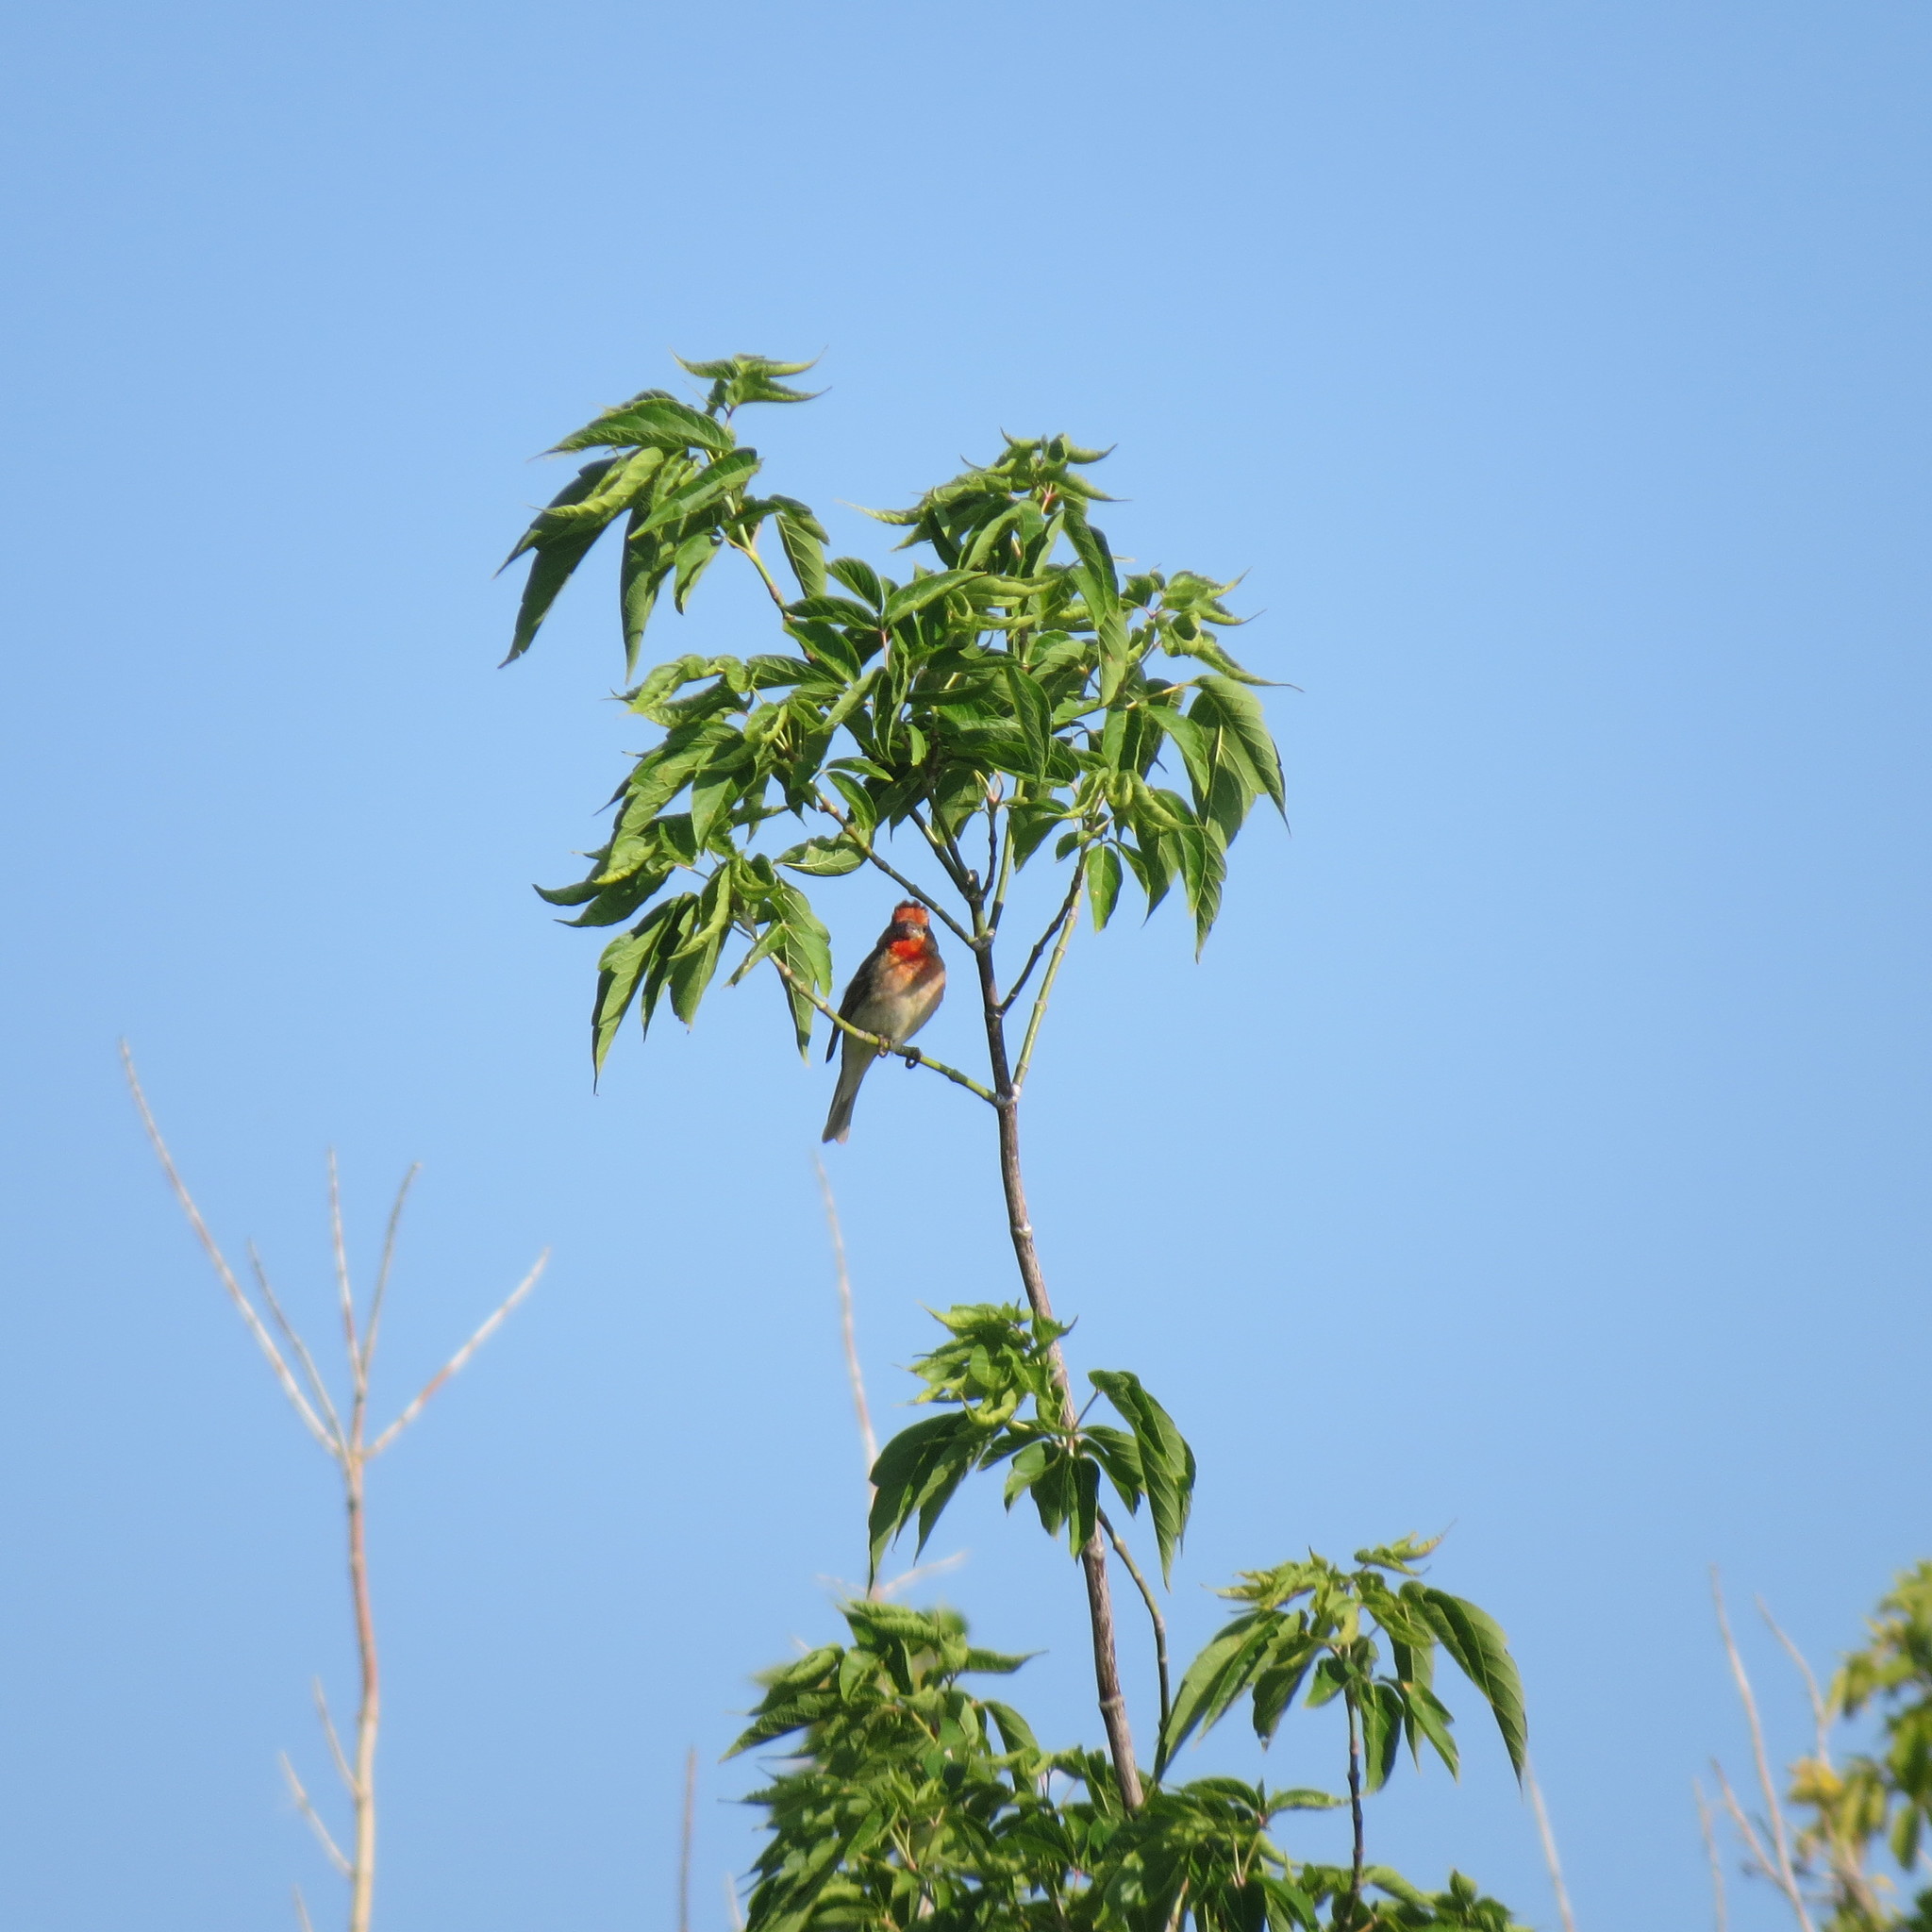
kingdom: Animalia
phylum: Chordata
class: Aves
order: Passeriformes
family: Fringillidae
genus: Carpodacus
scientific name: Carpodacus erythrinus
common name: Common rosefinch
